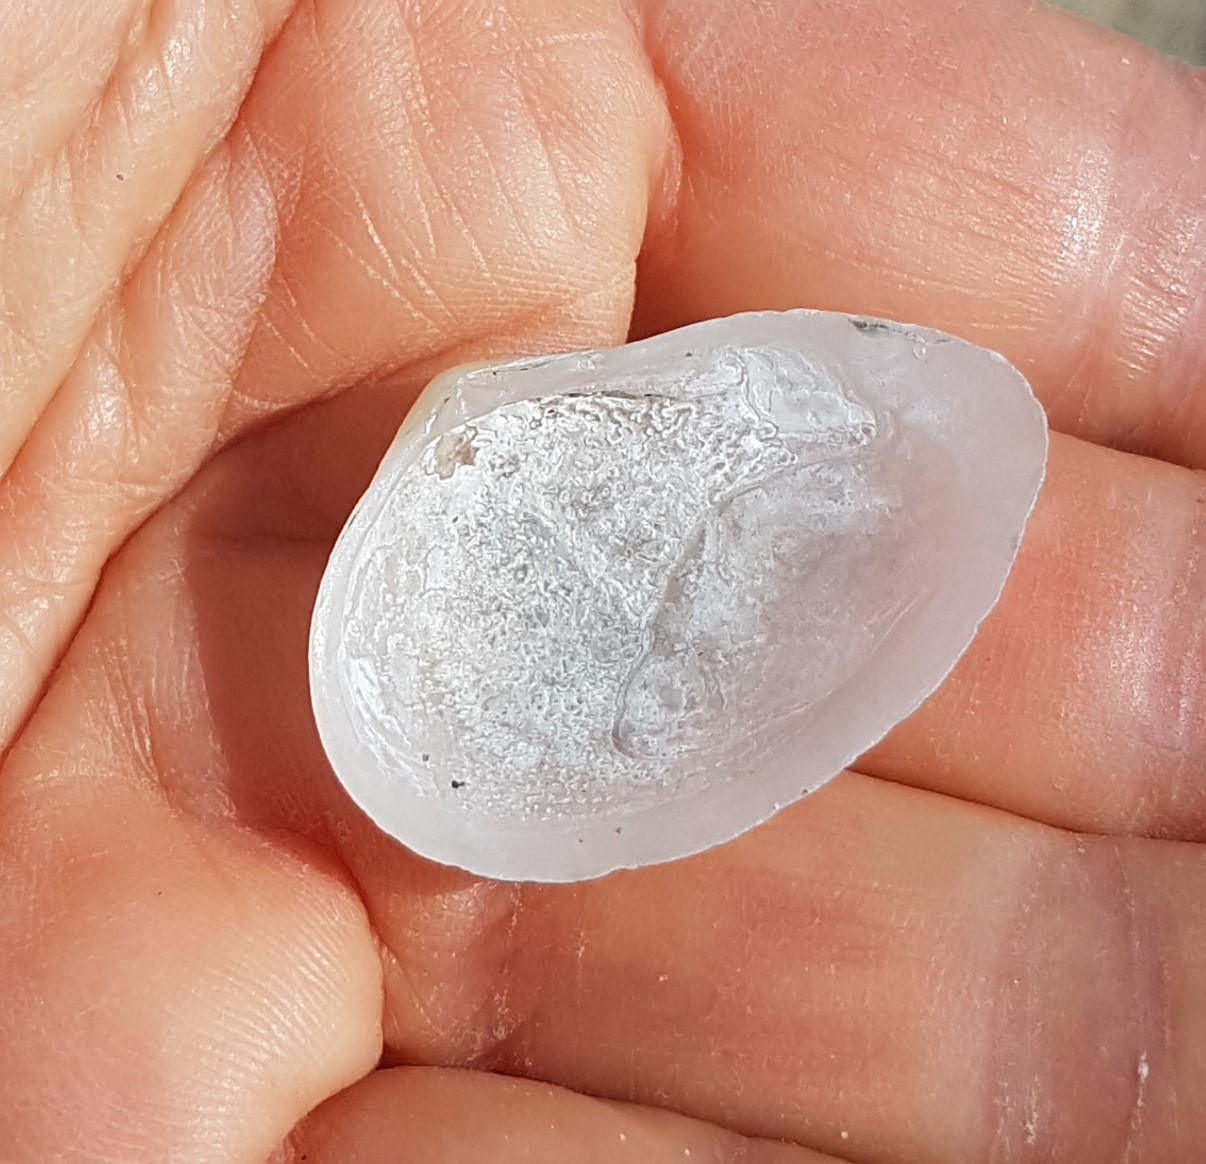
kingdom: Animalia
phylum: Mollusca
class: Bivalvia
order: Cardiida
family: Tellinidae
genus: Gastrana
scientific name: Gastrana fragilis
